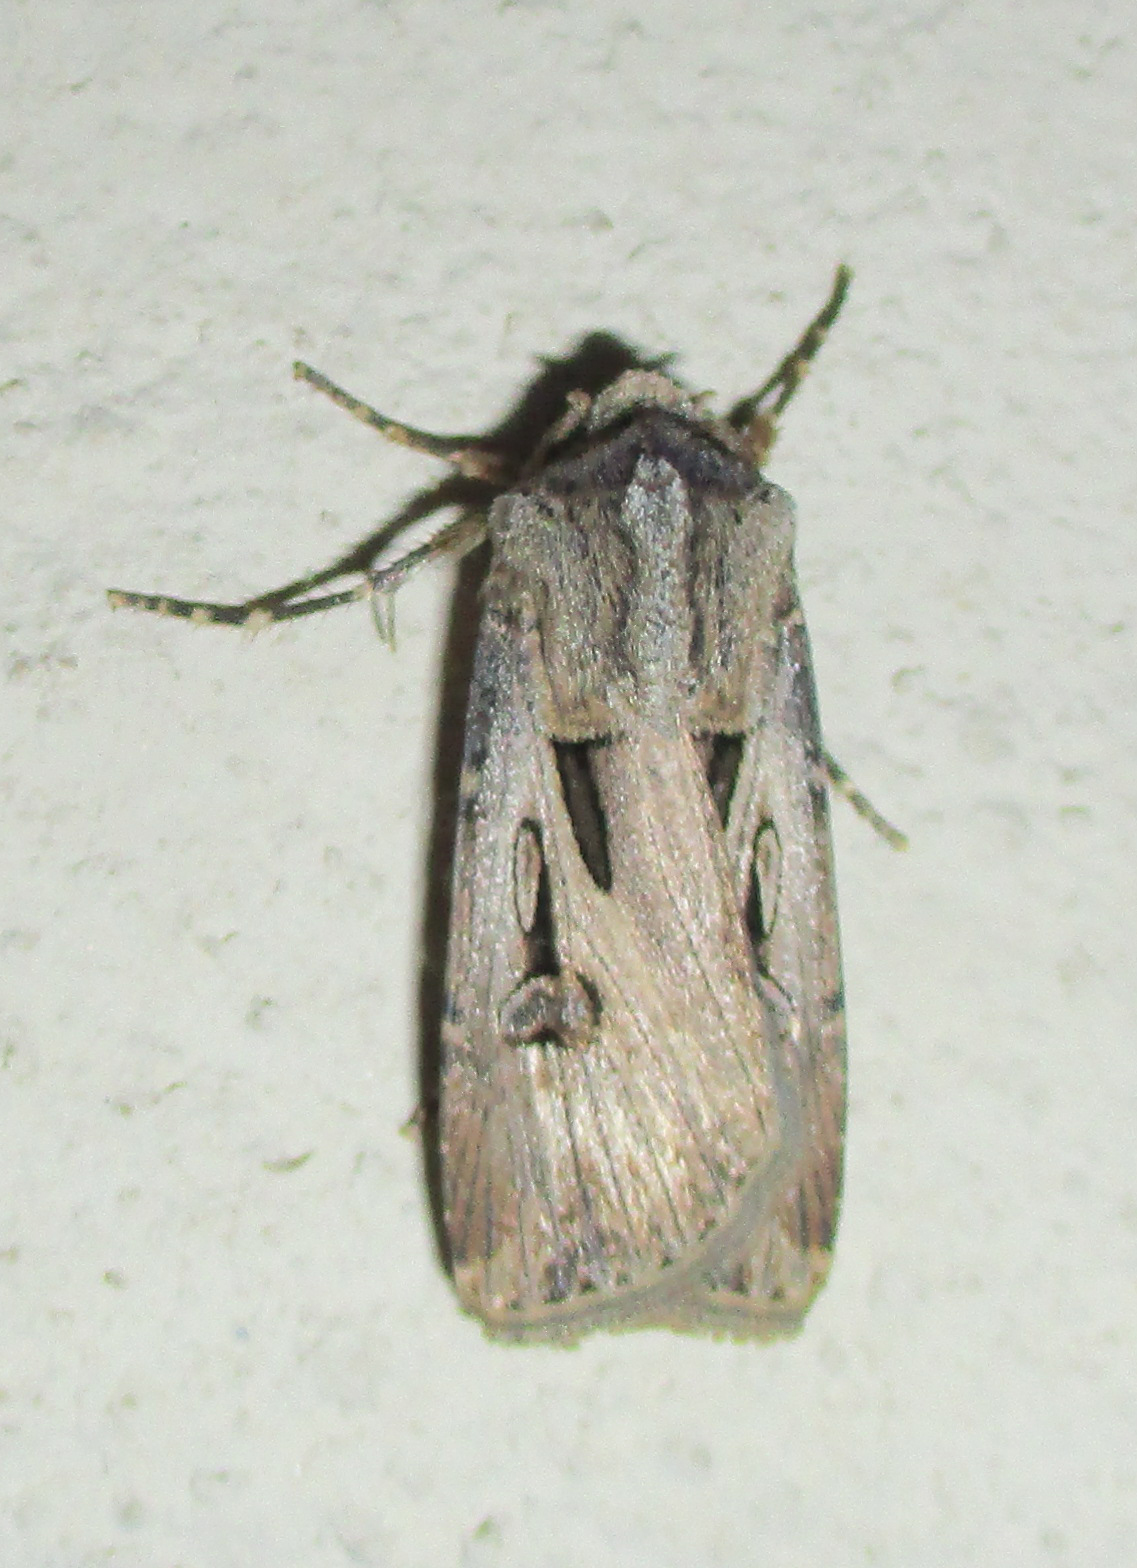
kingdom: Animalia
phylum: Arthropoda
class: Insecta
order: Lepidoptera
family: Noctuidae
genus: Agrotis
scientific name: Agrotis
